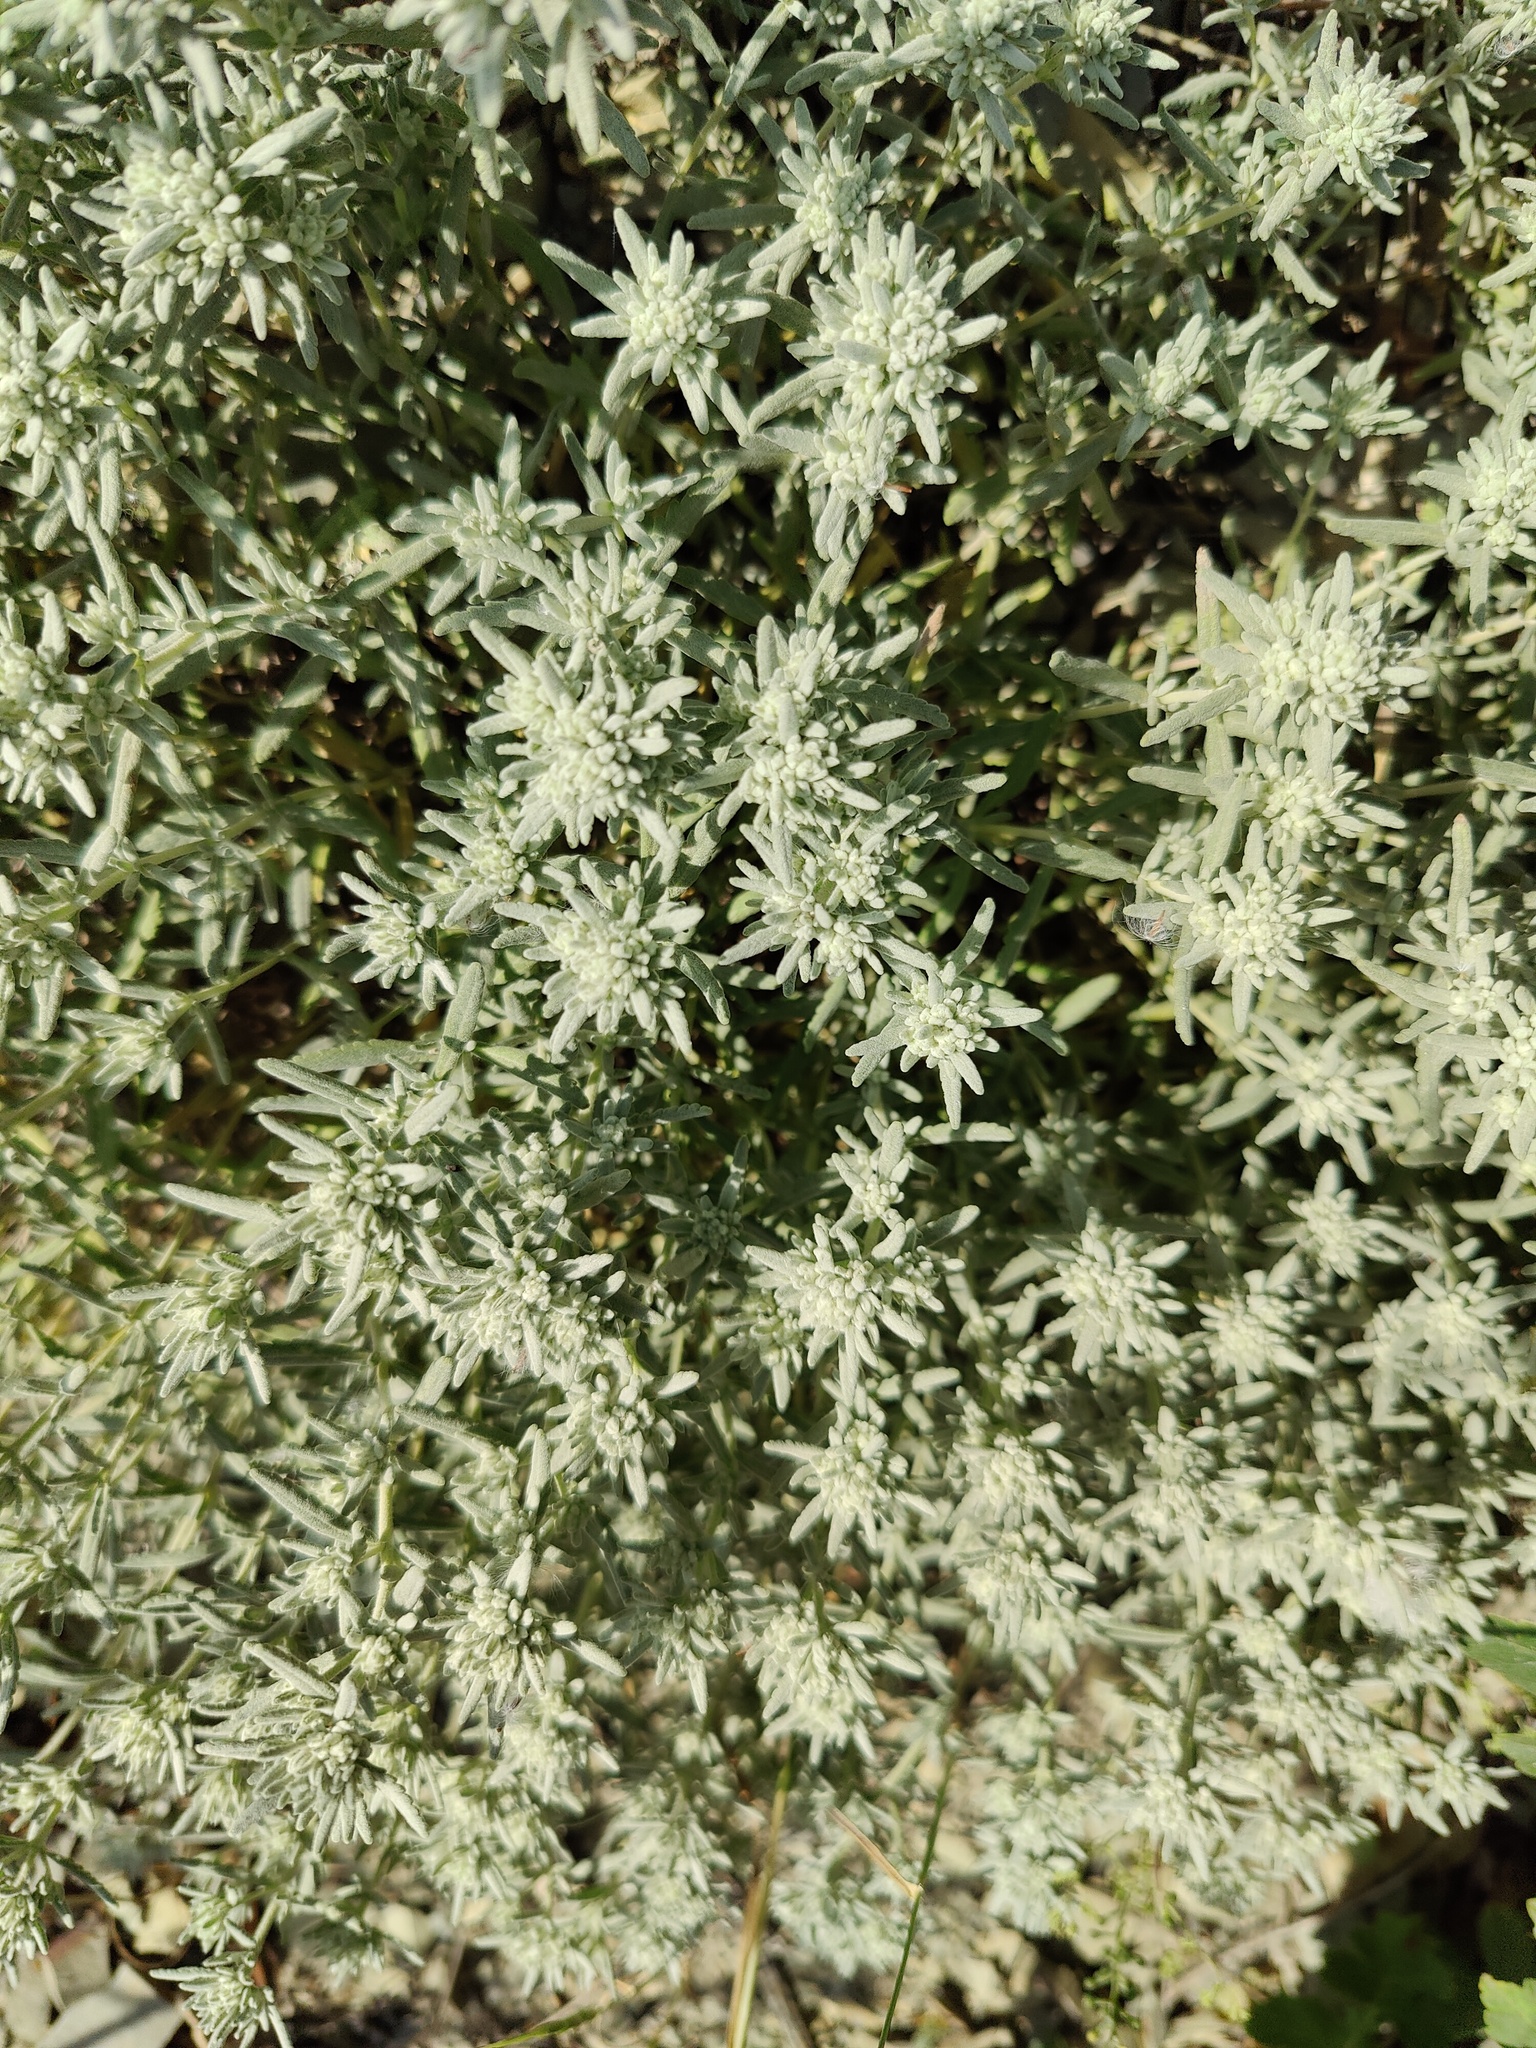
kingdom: Plantae
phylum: Tracheophyta
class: Magnoliopsida
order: Lamiales
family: Lamiaceae
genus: Teucrium
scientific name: Teucrium polium
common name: Poley
